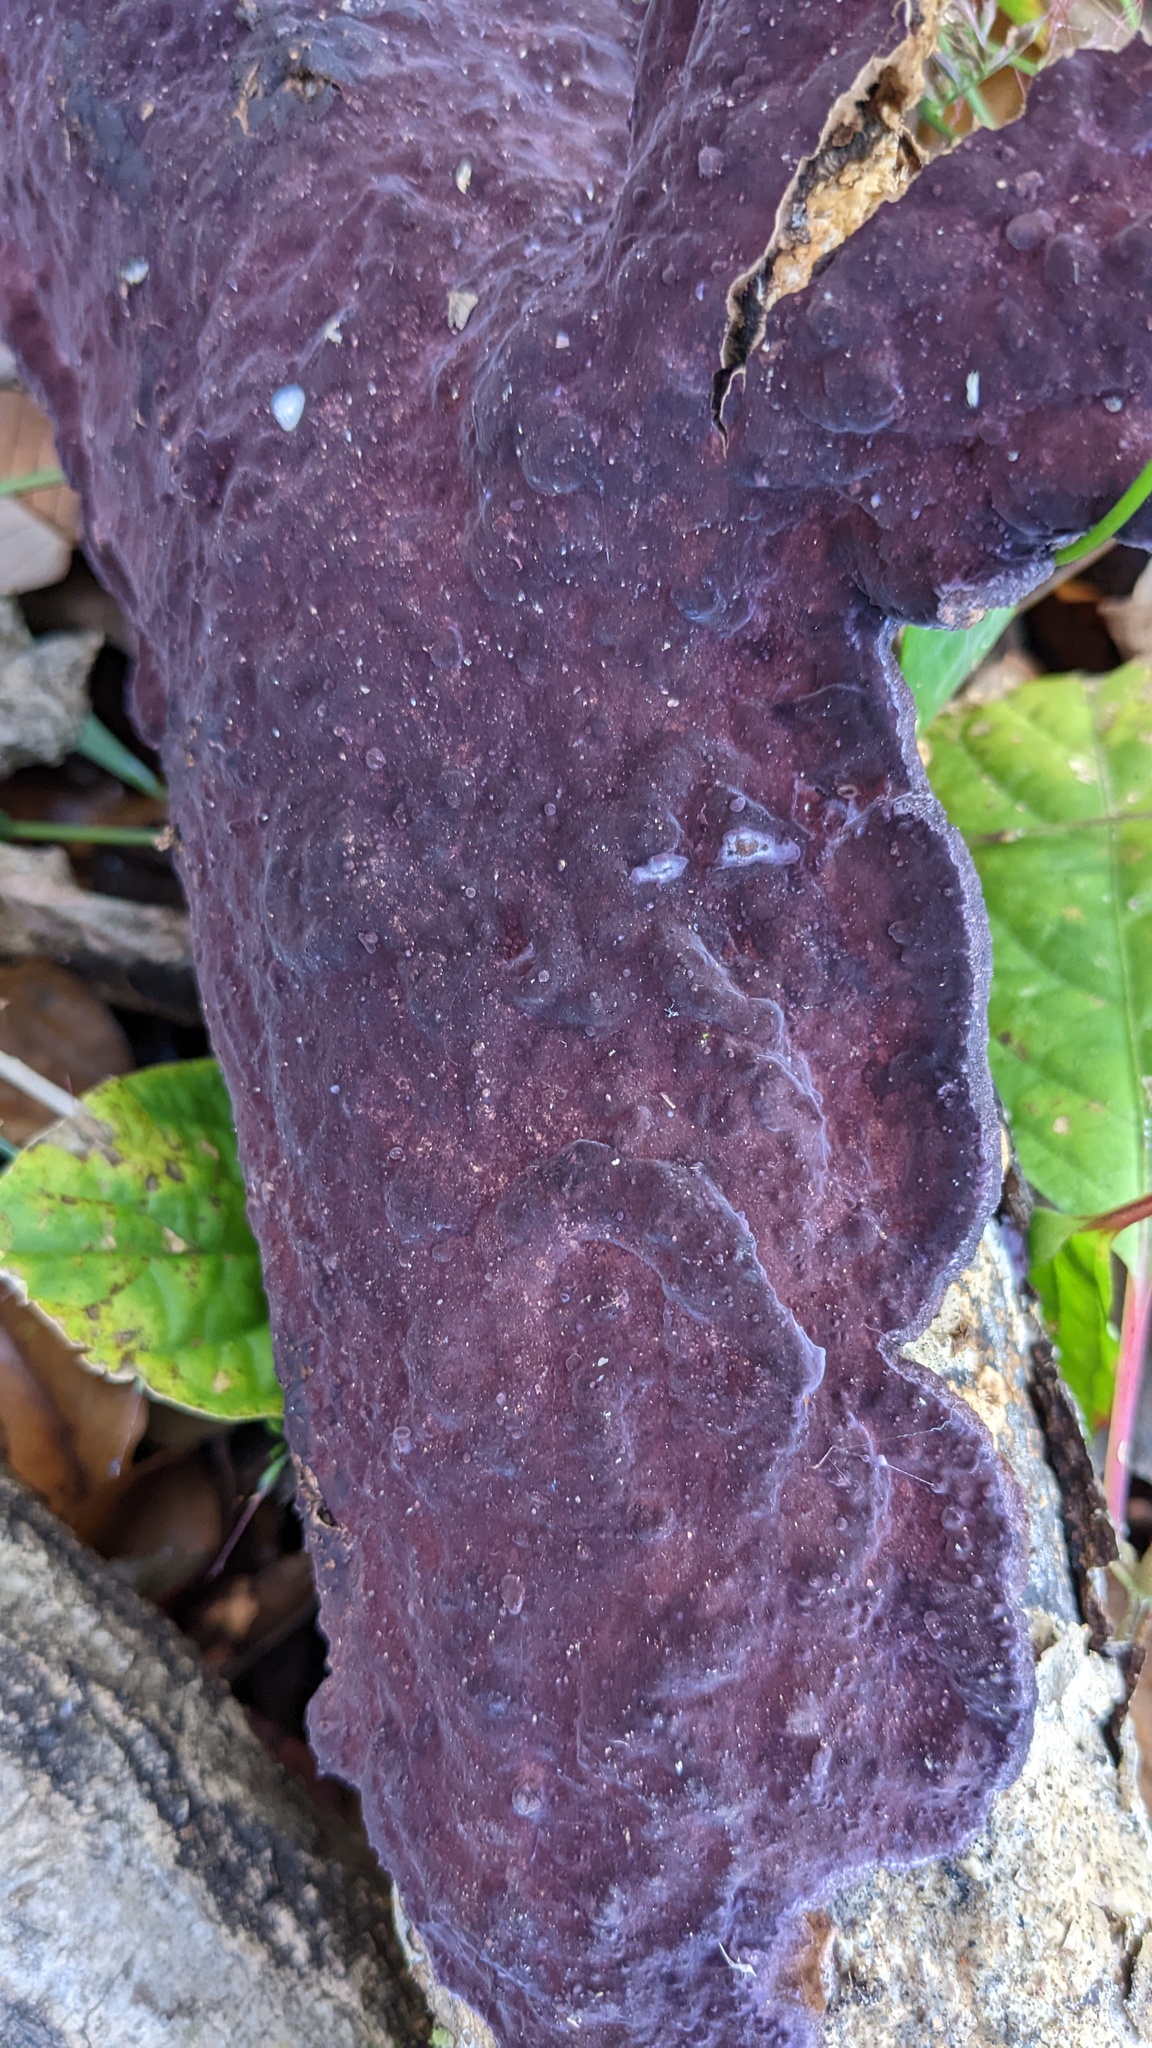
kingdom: Fungi
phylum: Basidiomycota
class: Agaricomycetes
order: Polyporales
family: Phanerochaetaceae
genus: Phlebiopsis
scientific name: Phlebiopsis crassa
